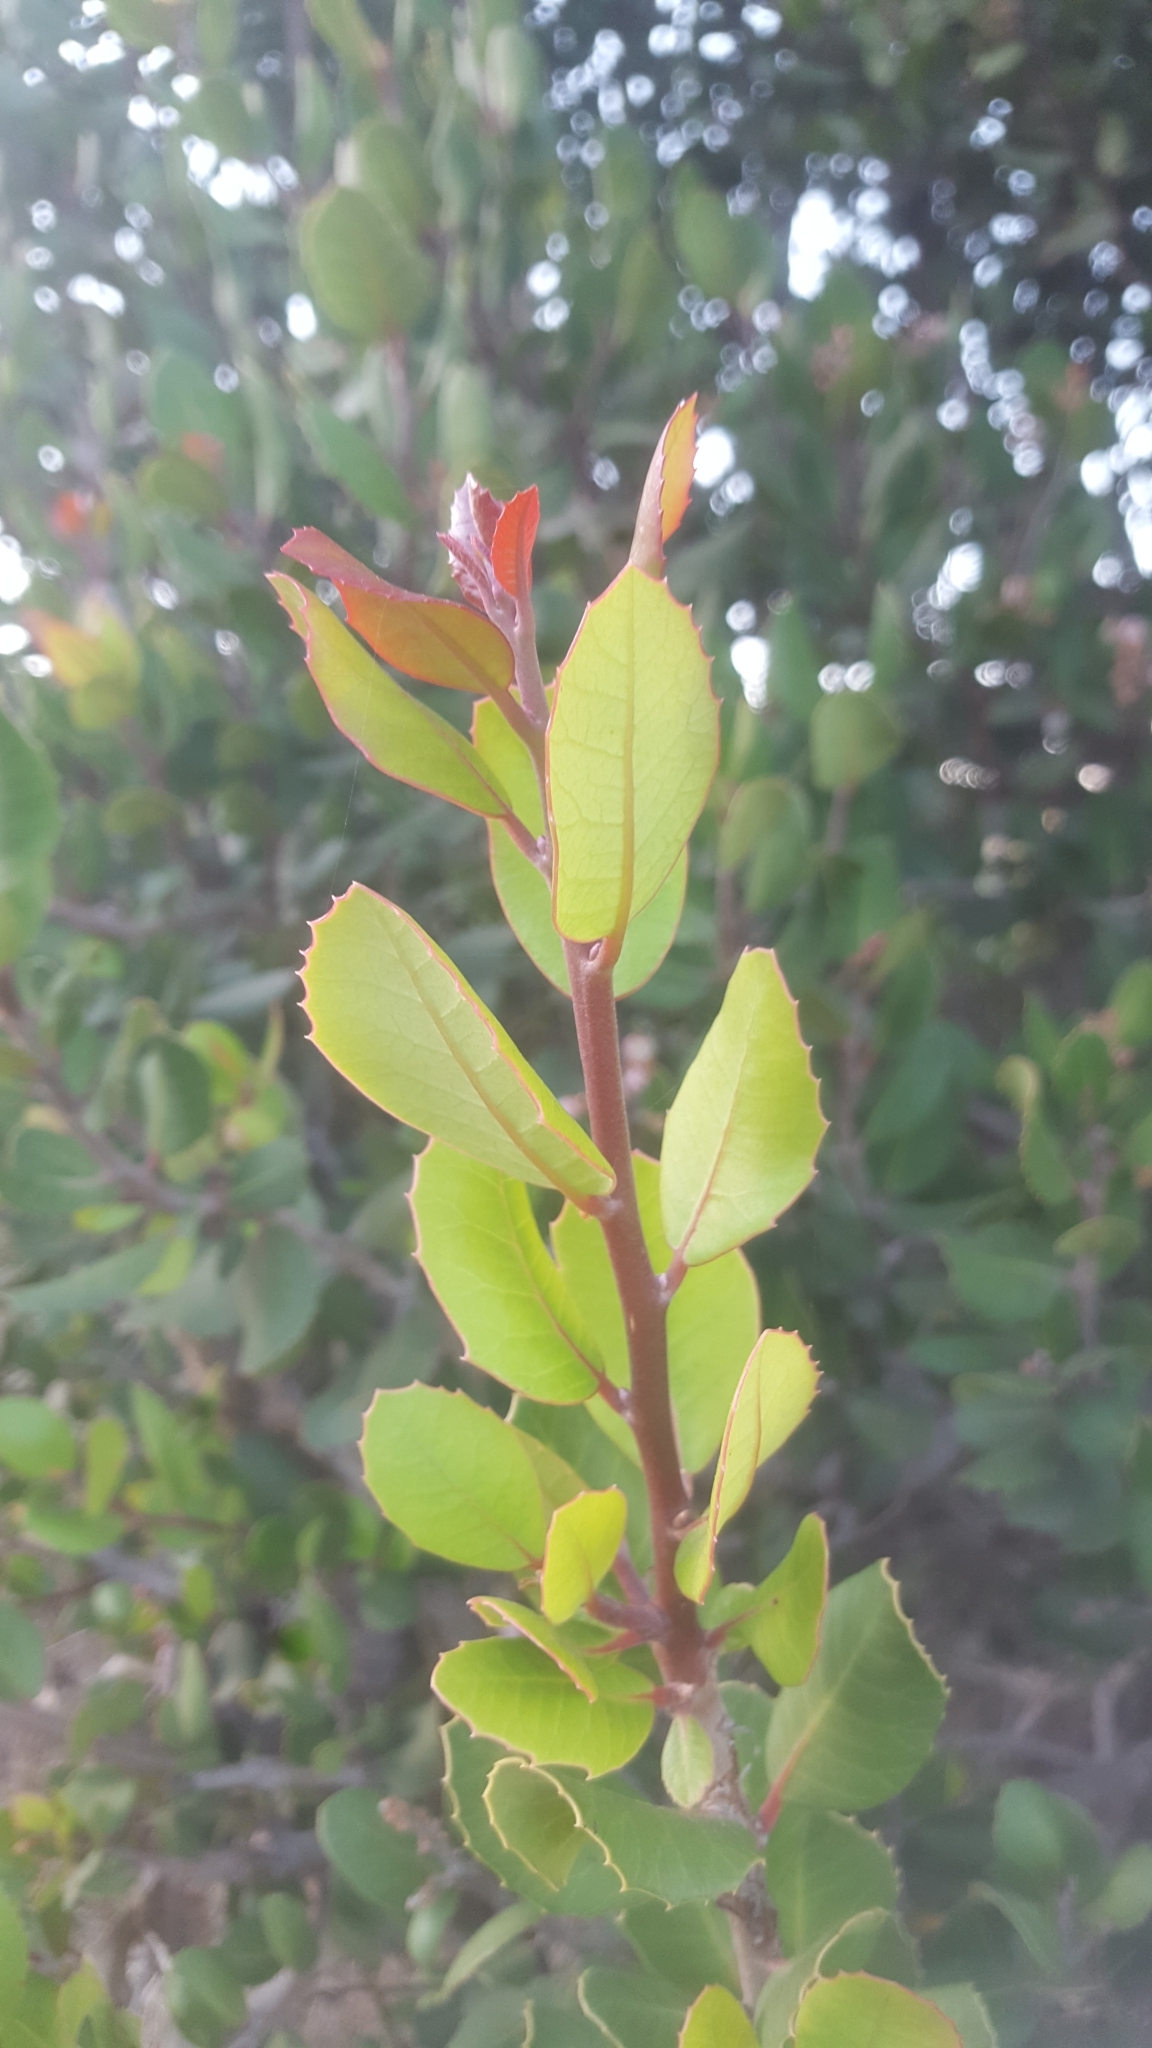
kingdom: Plantae
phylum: Tracheophyta
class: Magnoliopsida
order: Sapindales
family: Anacardiaceae
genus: Rhus
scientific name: Rhus integrifolia
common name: Lemonade sumac
